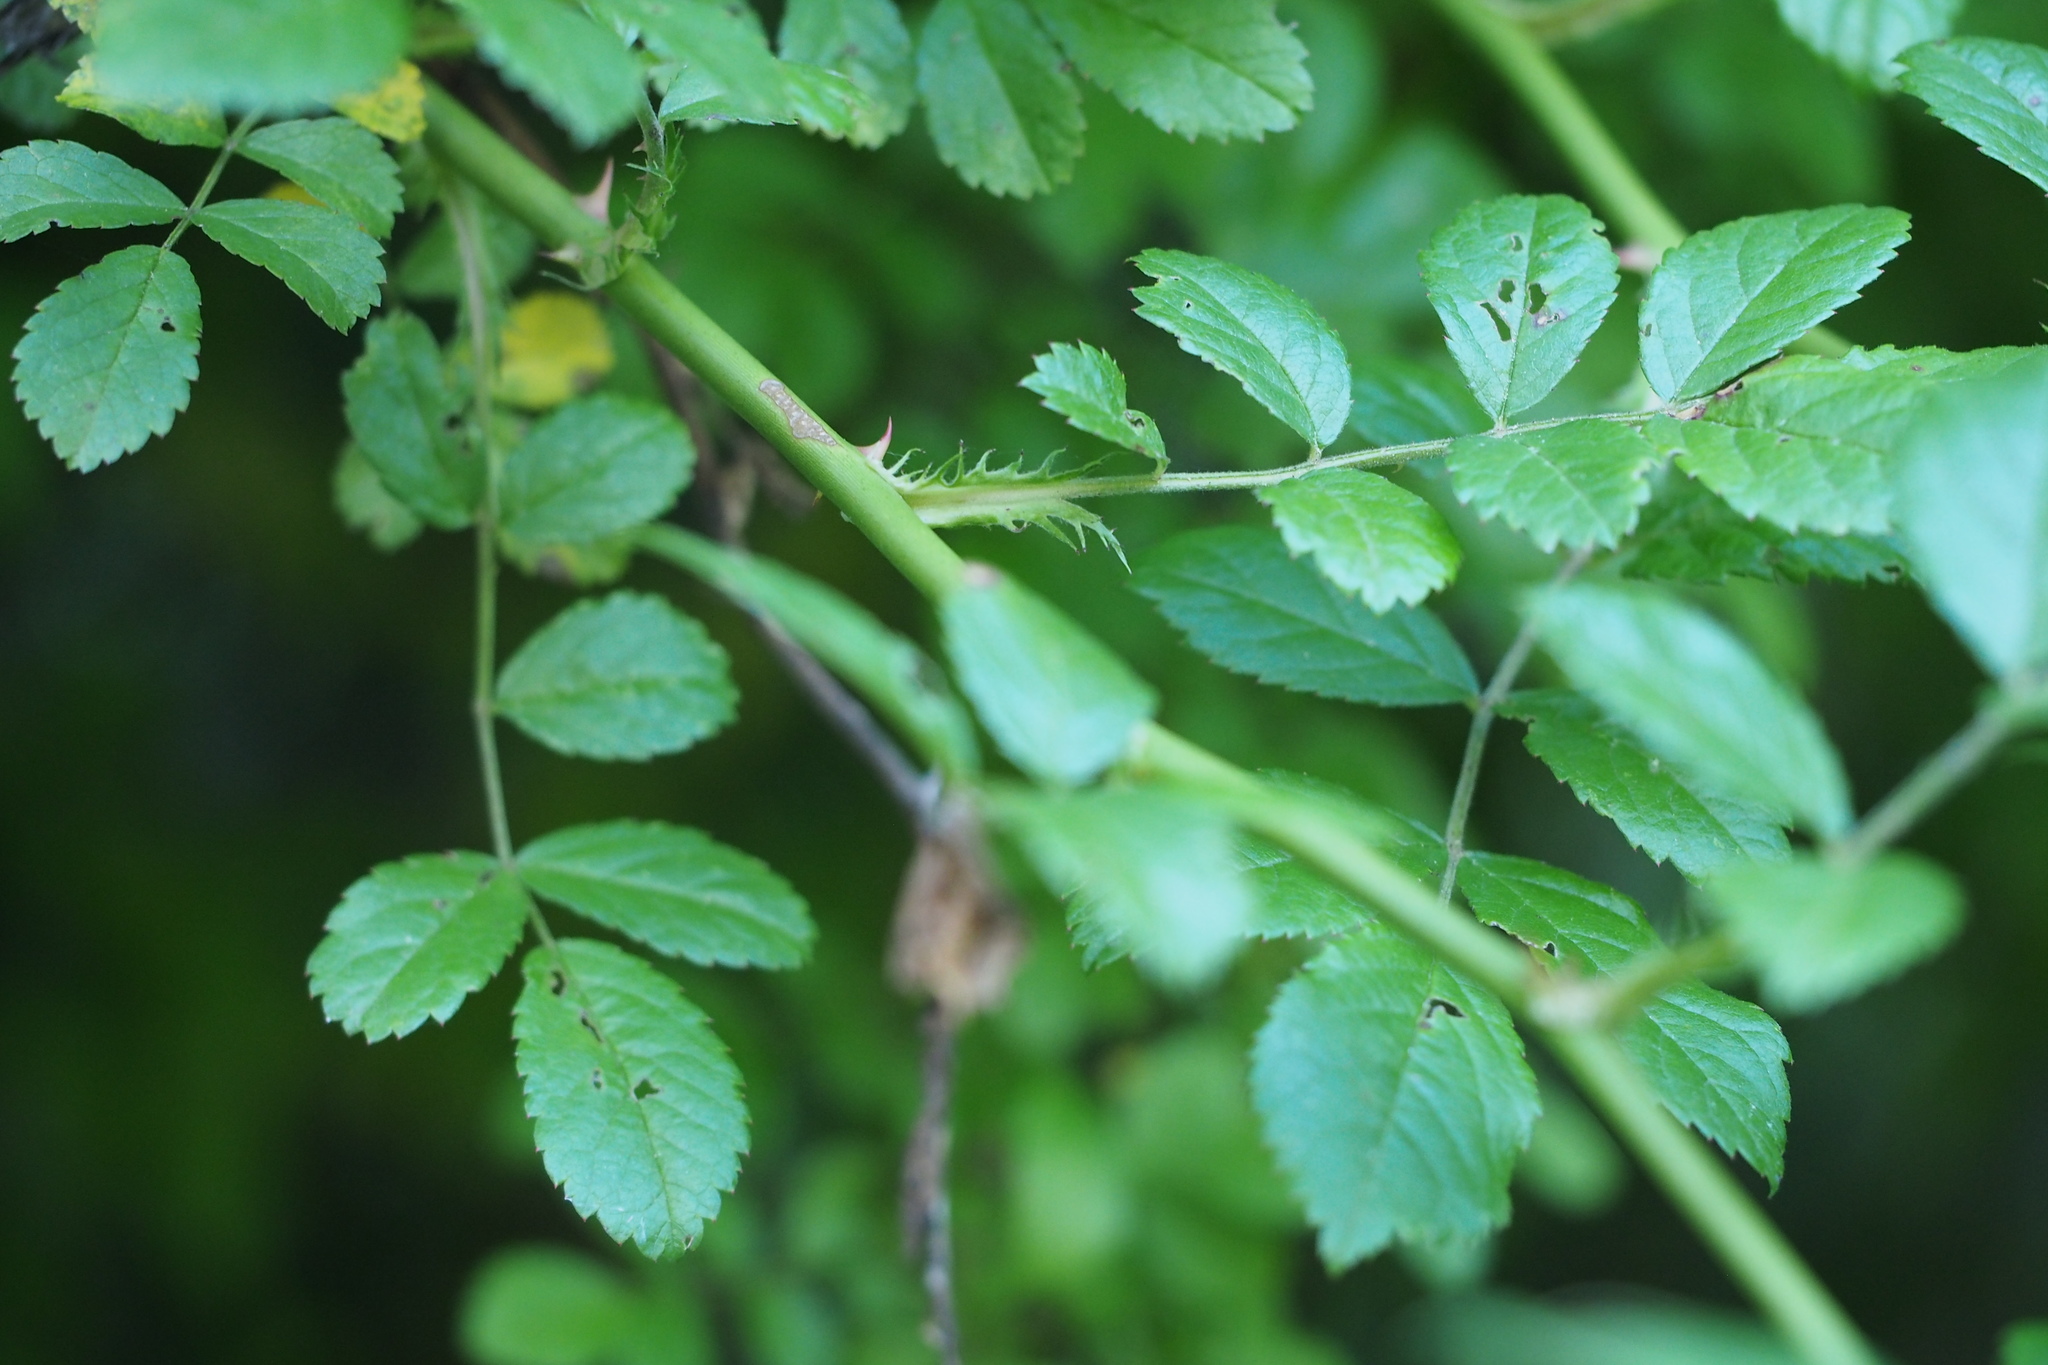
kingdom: Plantae
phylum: Tracheophyta
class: Magnoliopsida
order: Rosales
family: Rosaceae
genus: Rosa
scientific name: Rosa multiflora
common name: Multiflora rose
